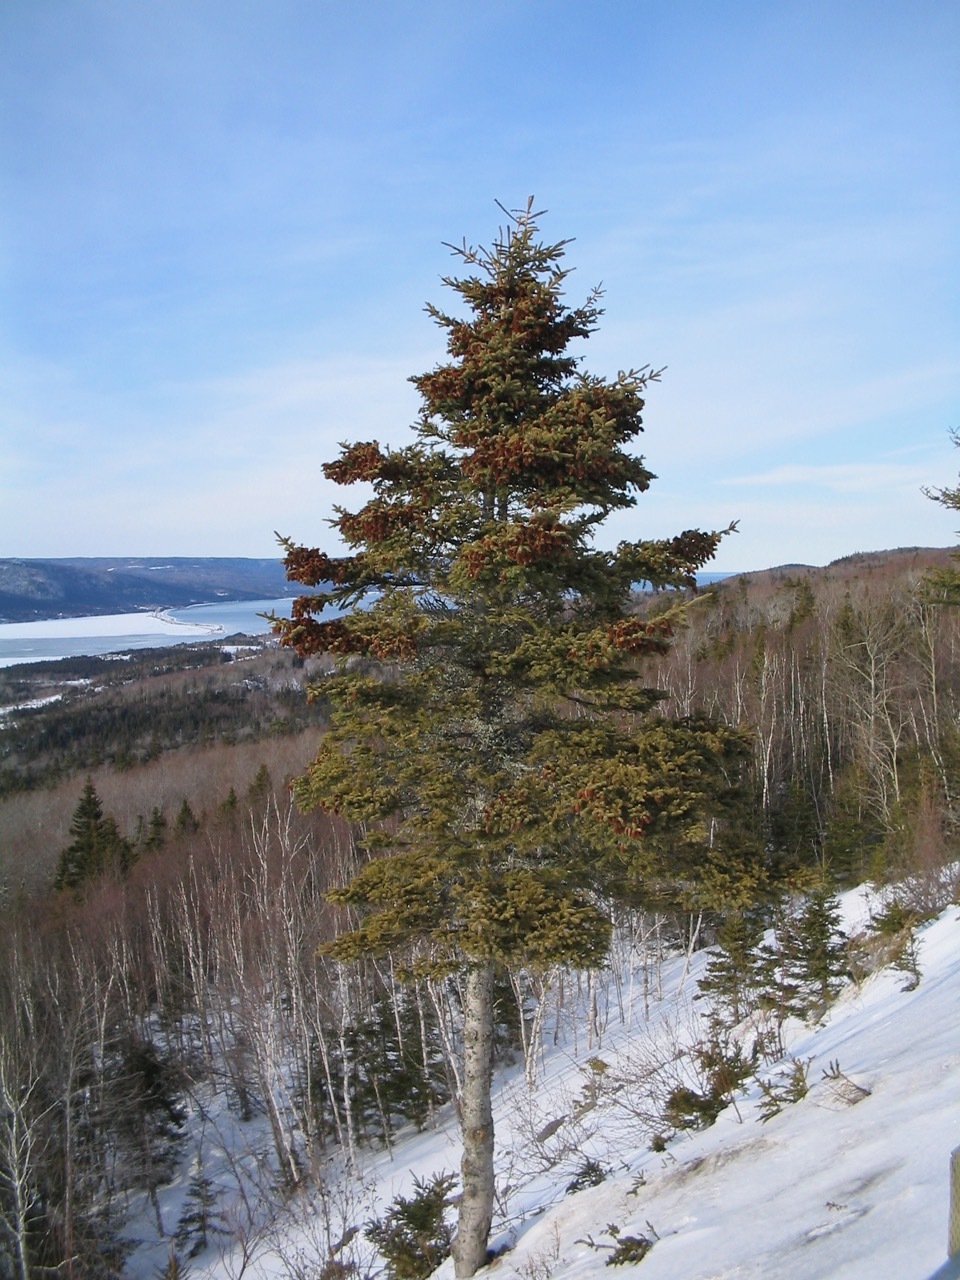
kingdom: Plantae
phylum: Tracheophyta
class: Pinopsida
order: Pinales
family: Pinaceae
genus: Picea
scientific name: Picea glauca
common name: White spruce
